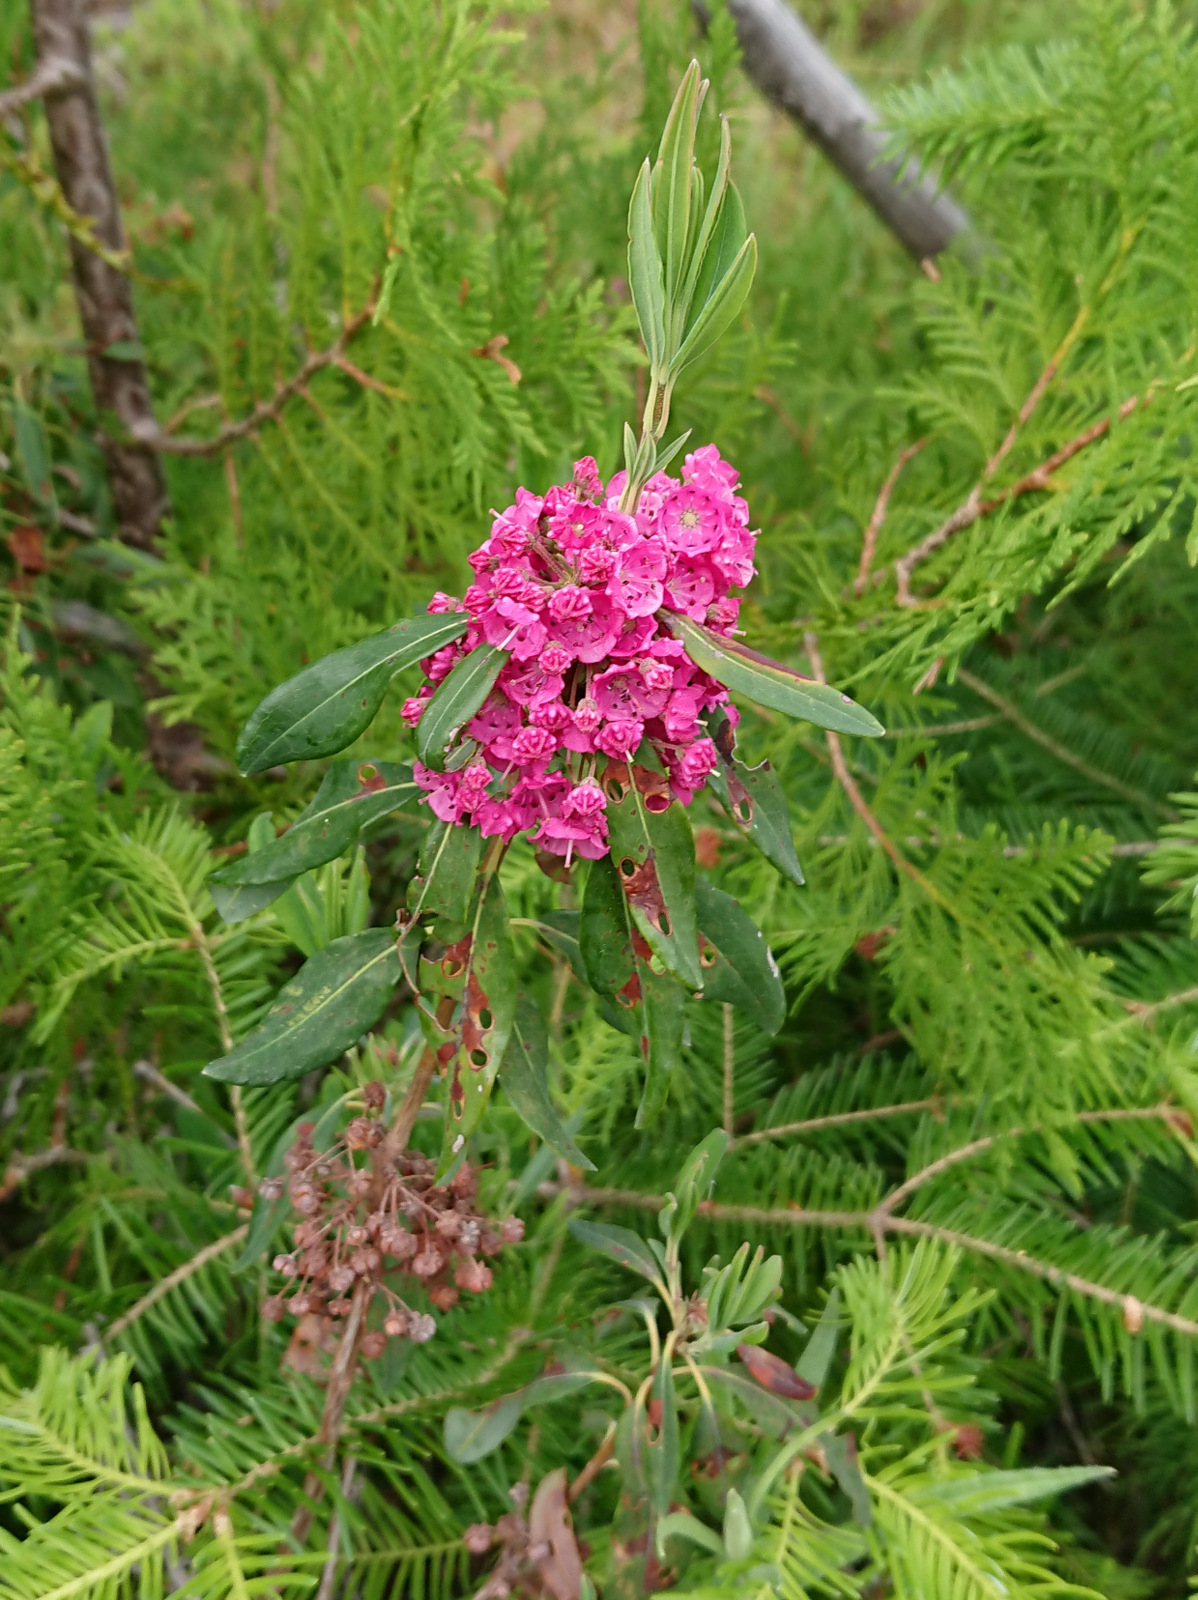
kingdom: Plantae
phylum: Tracheophyta
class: Magnoliopsida
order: Ericales
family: Ericaceae
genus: Kalmia
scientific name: Kalmia angustifolia
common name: Sheep-laurel
